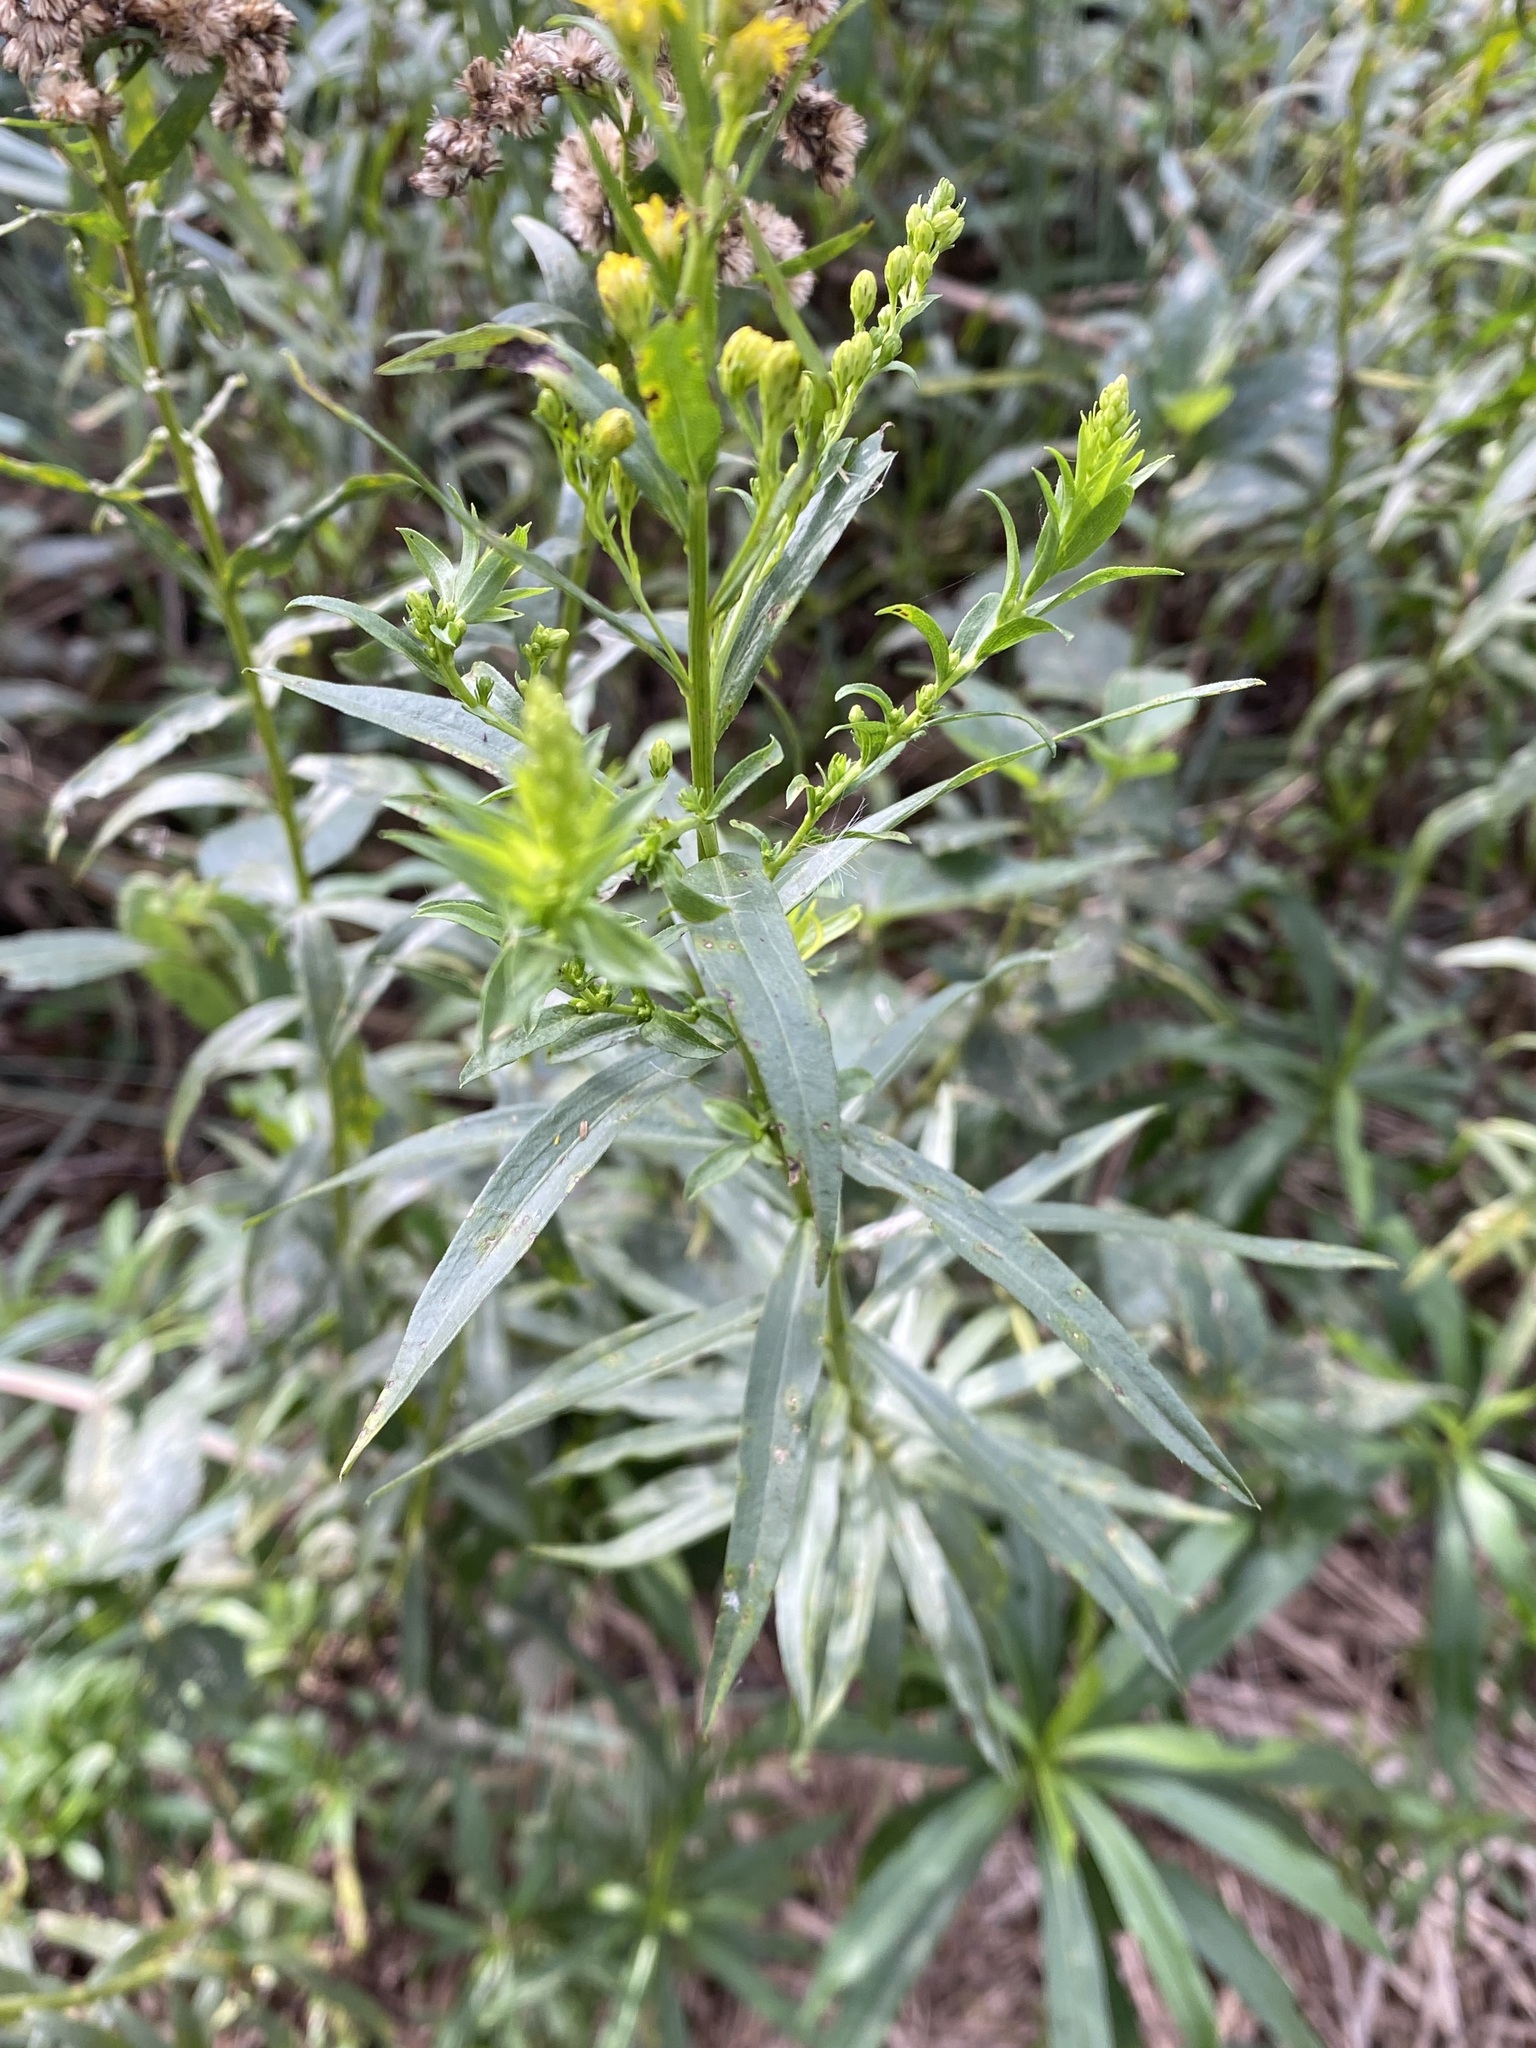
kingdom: Plantae
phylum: Tracheophyta
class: Magnoliopsida
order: Asterales
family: Asteraceae
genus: Solidago
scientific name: Solidago chilensis
